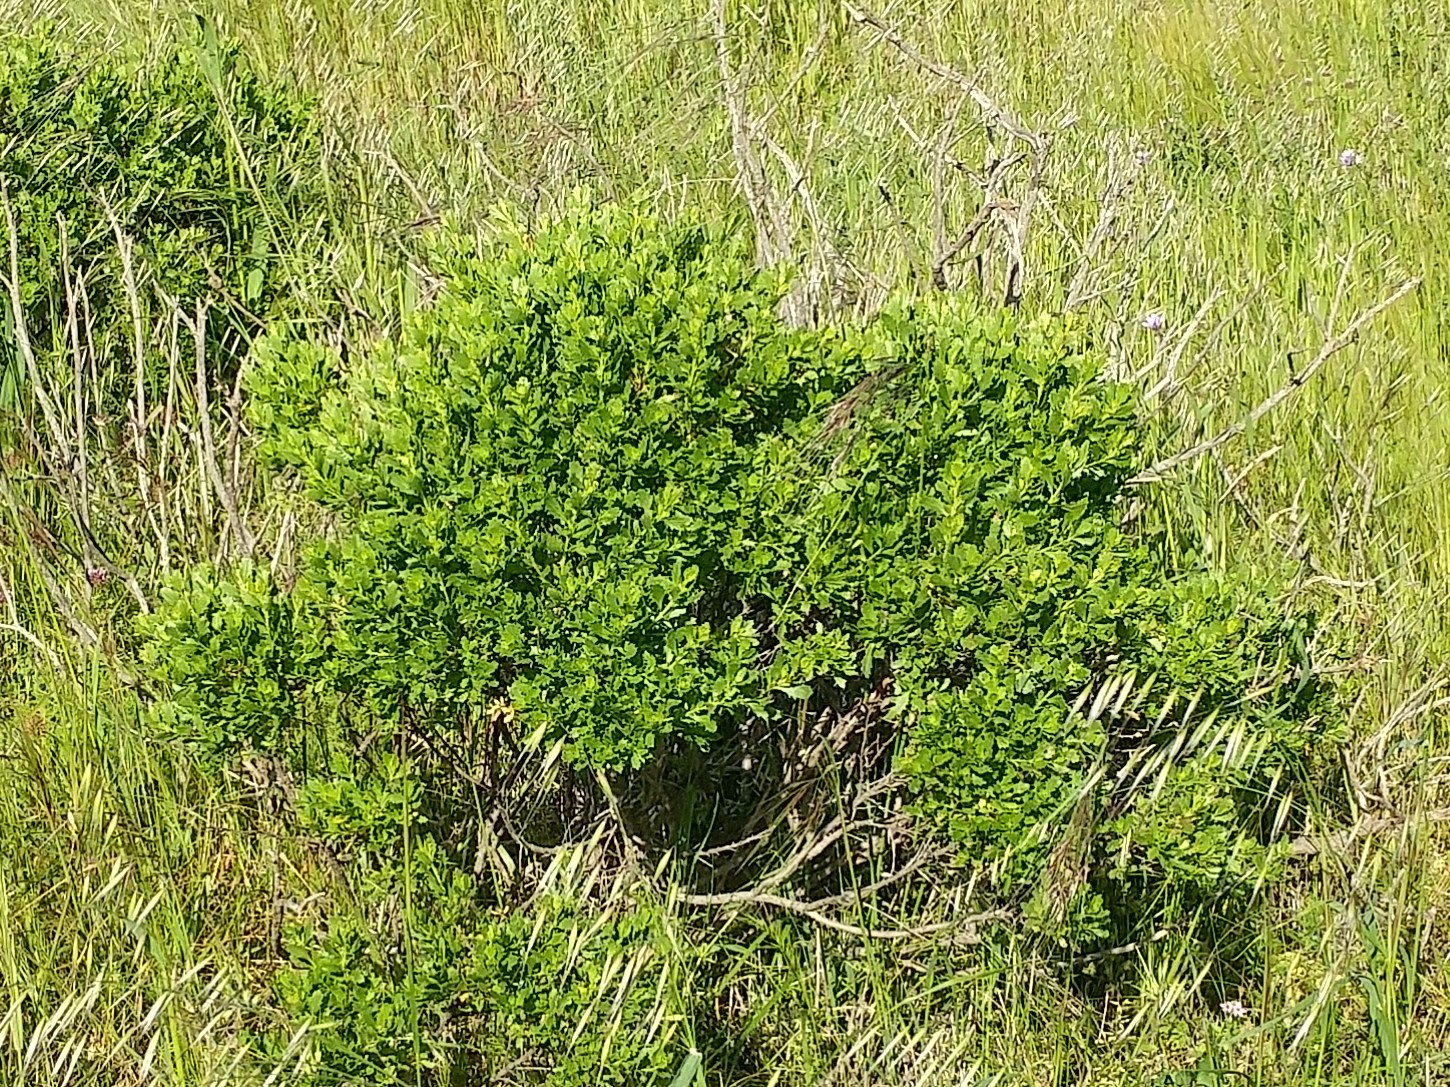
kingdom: Plantae
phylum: Tracheophyta
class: Magnoliopsida
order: Asterales
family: Asteraceae
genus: Baccharis
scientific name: Baccharis pilularis
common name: Coyotebrush
